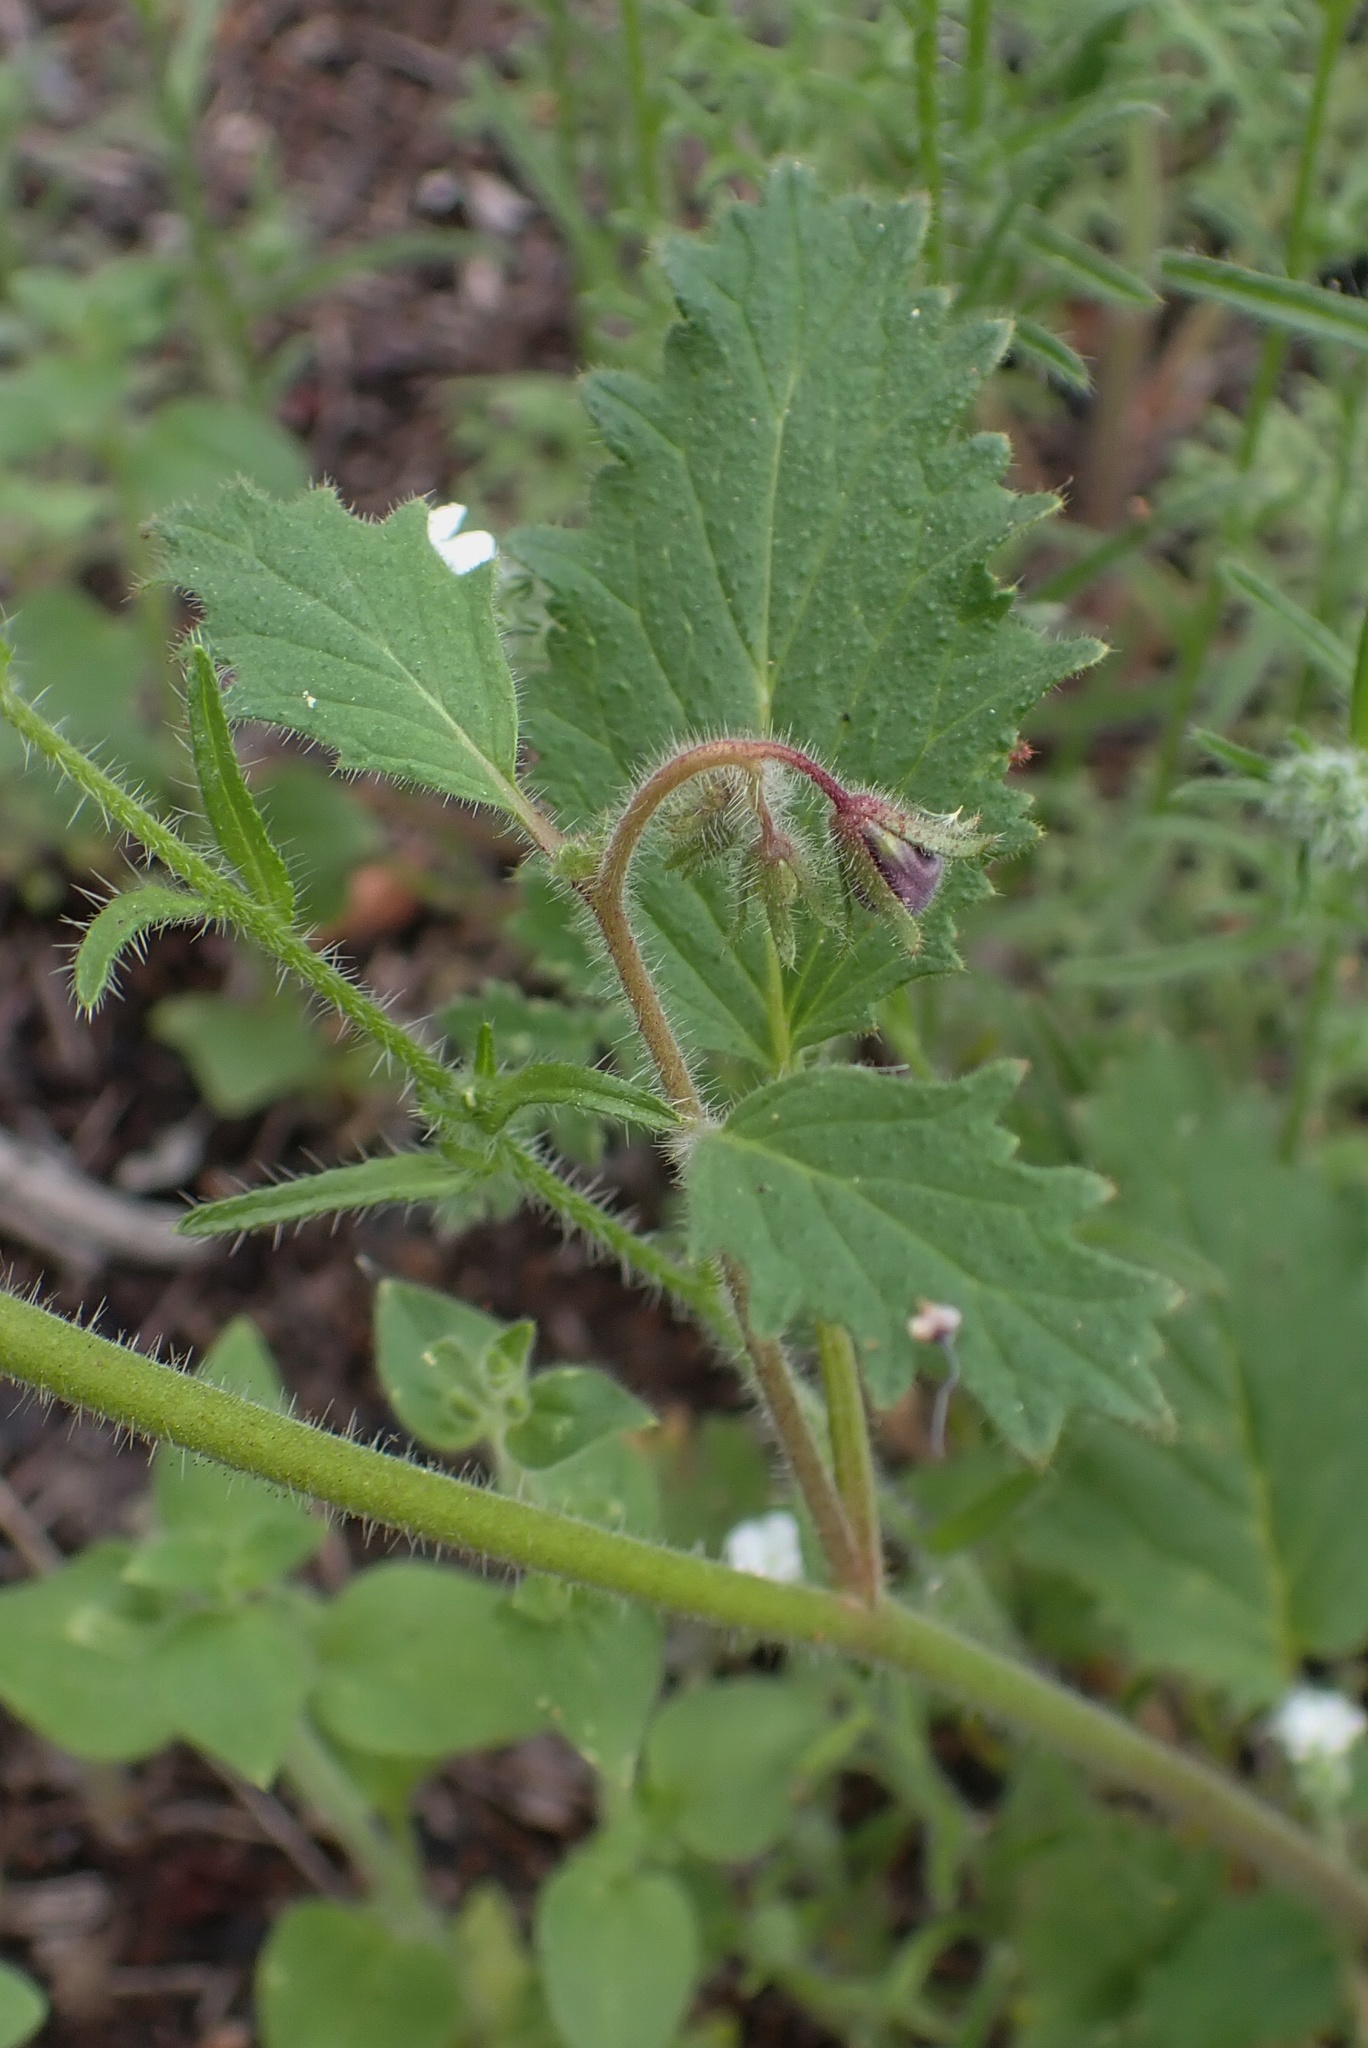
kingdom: Plantae
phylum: Tracheophyta
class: Magnoliopsida
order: Boraginales
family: Hydrophyllaceae
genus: Phacelia
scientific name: Phacelia parryi
